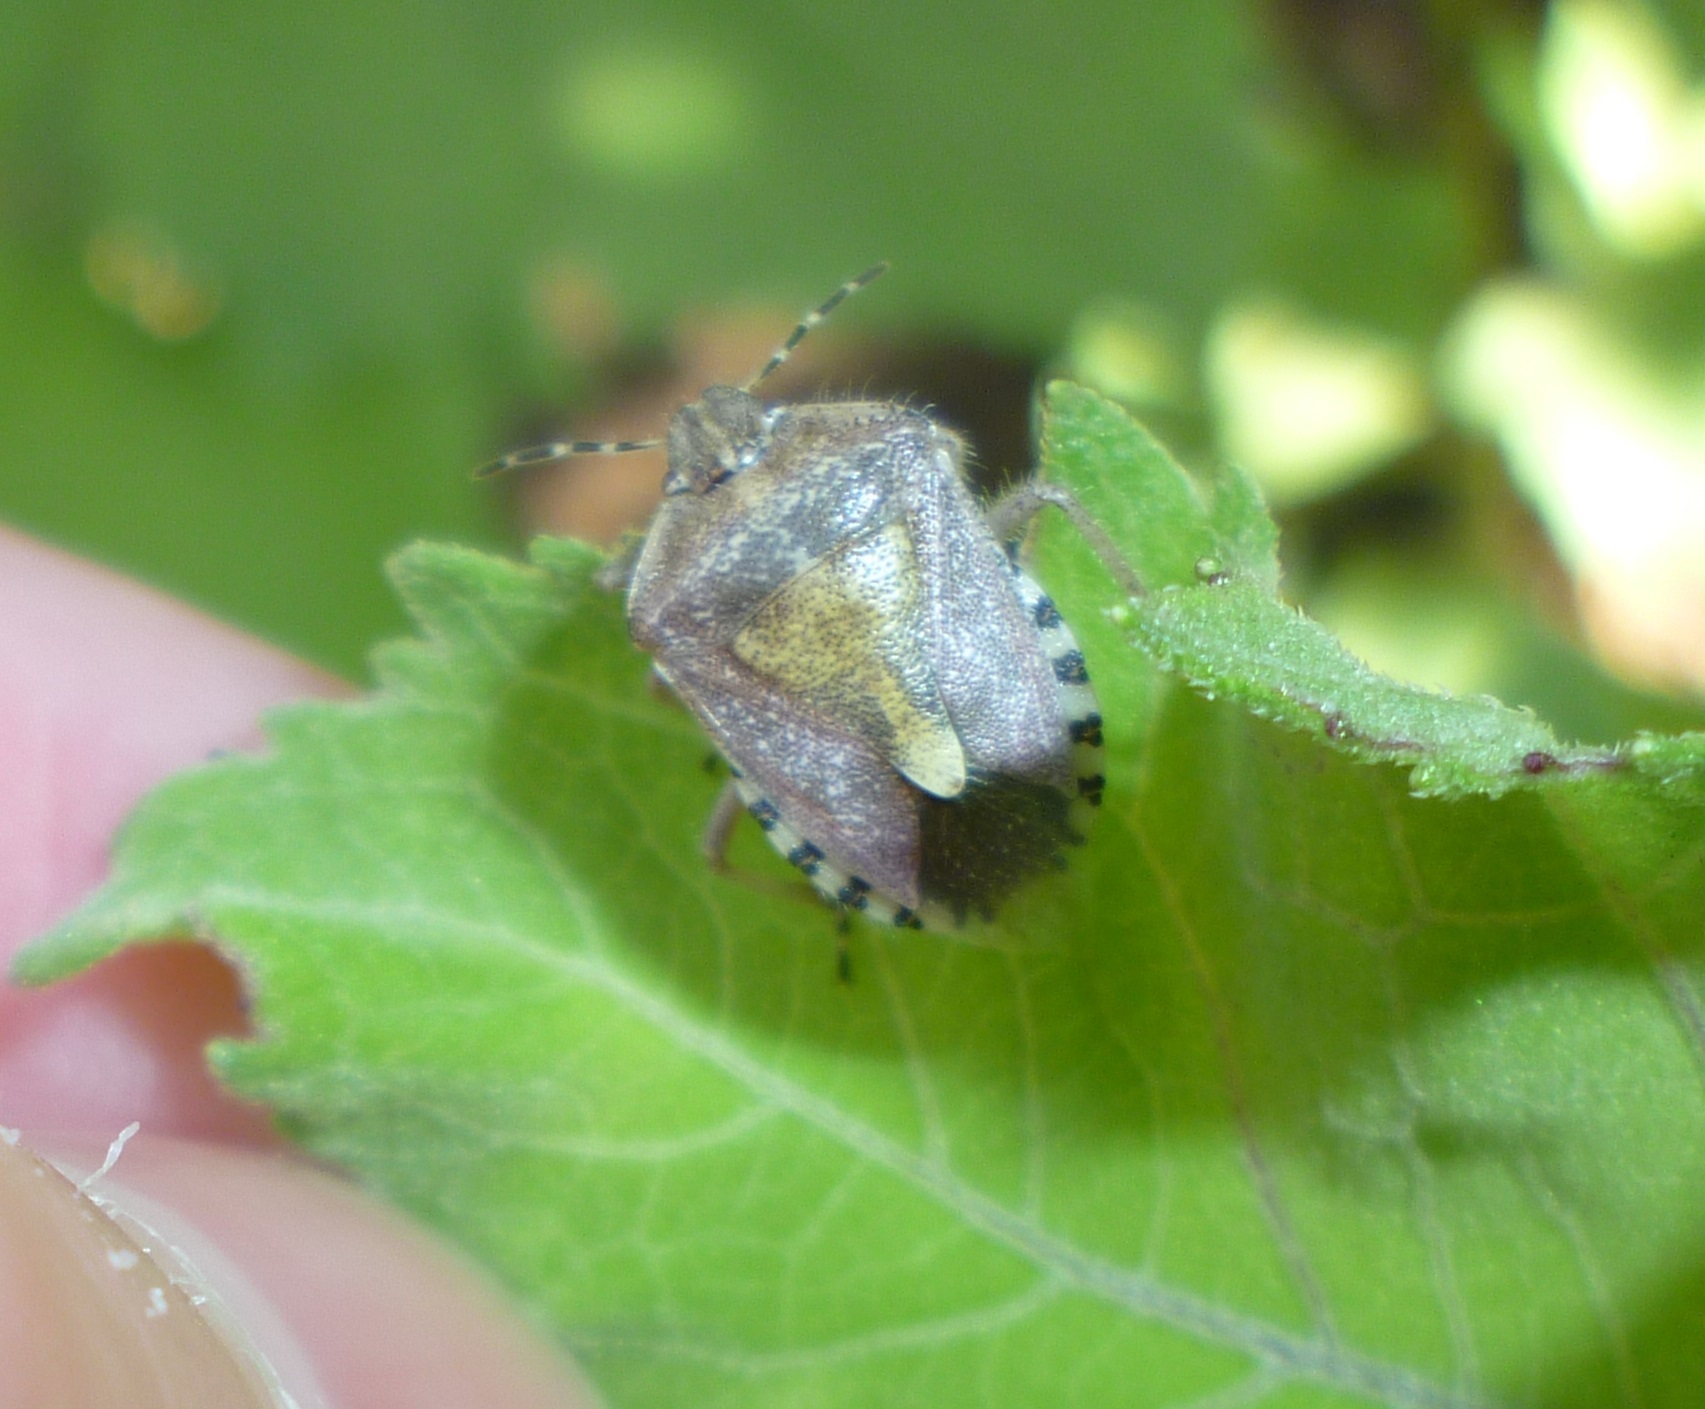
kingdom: Animalia
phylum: Arthropoda
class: Insecta
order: Hemiptera
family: Pentatomidae
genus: Dolycoris
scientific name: Dolycoris baccarum
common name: Sloe bug
